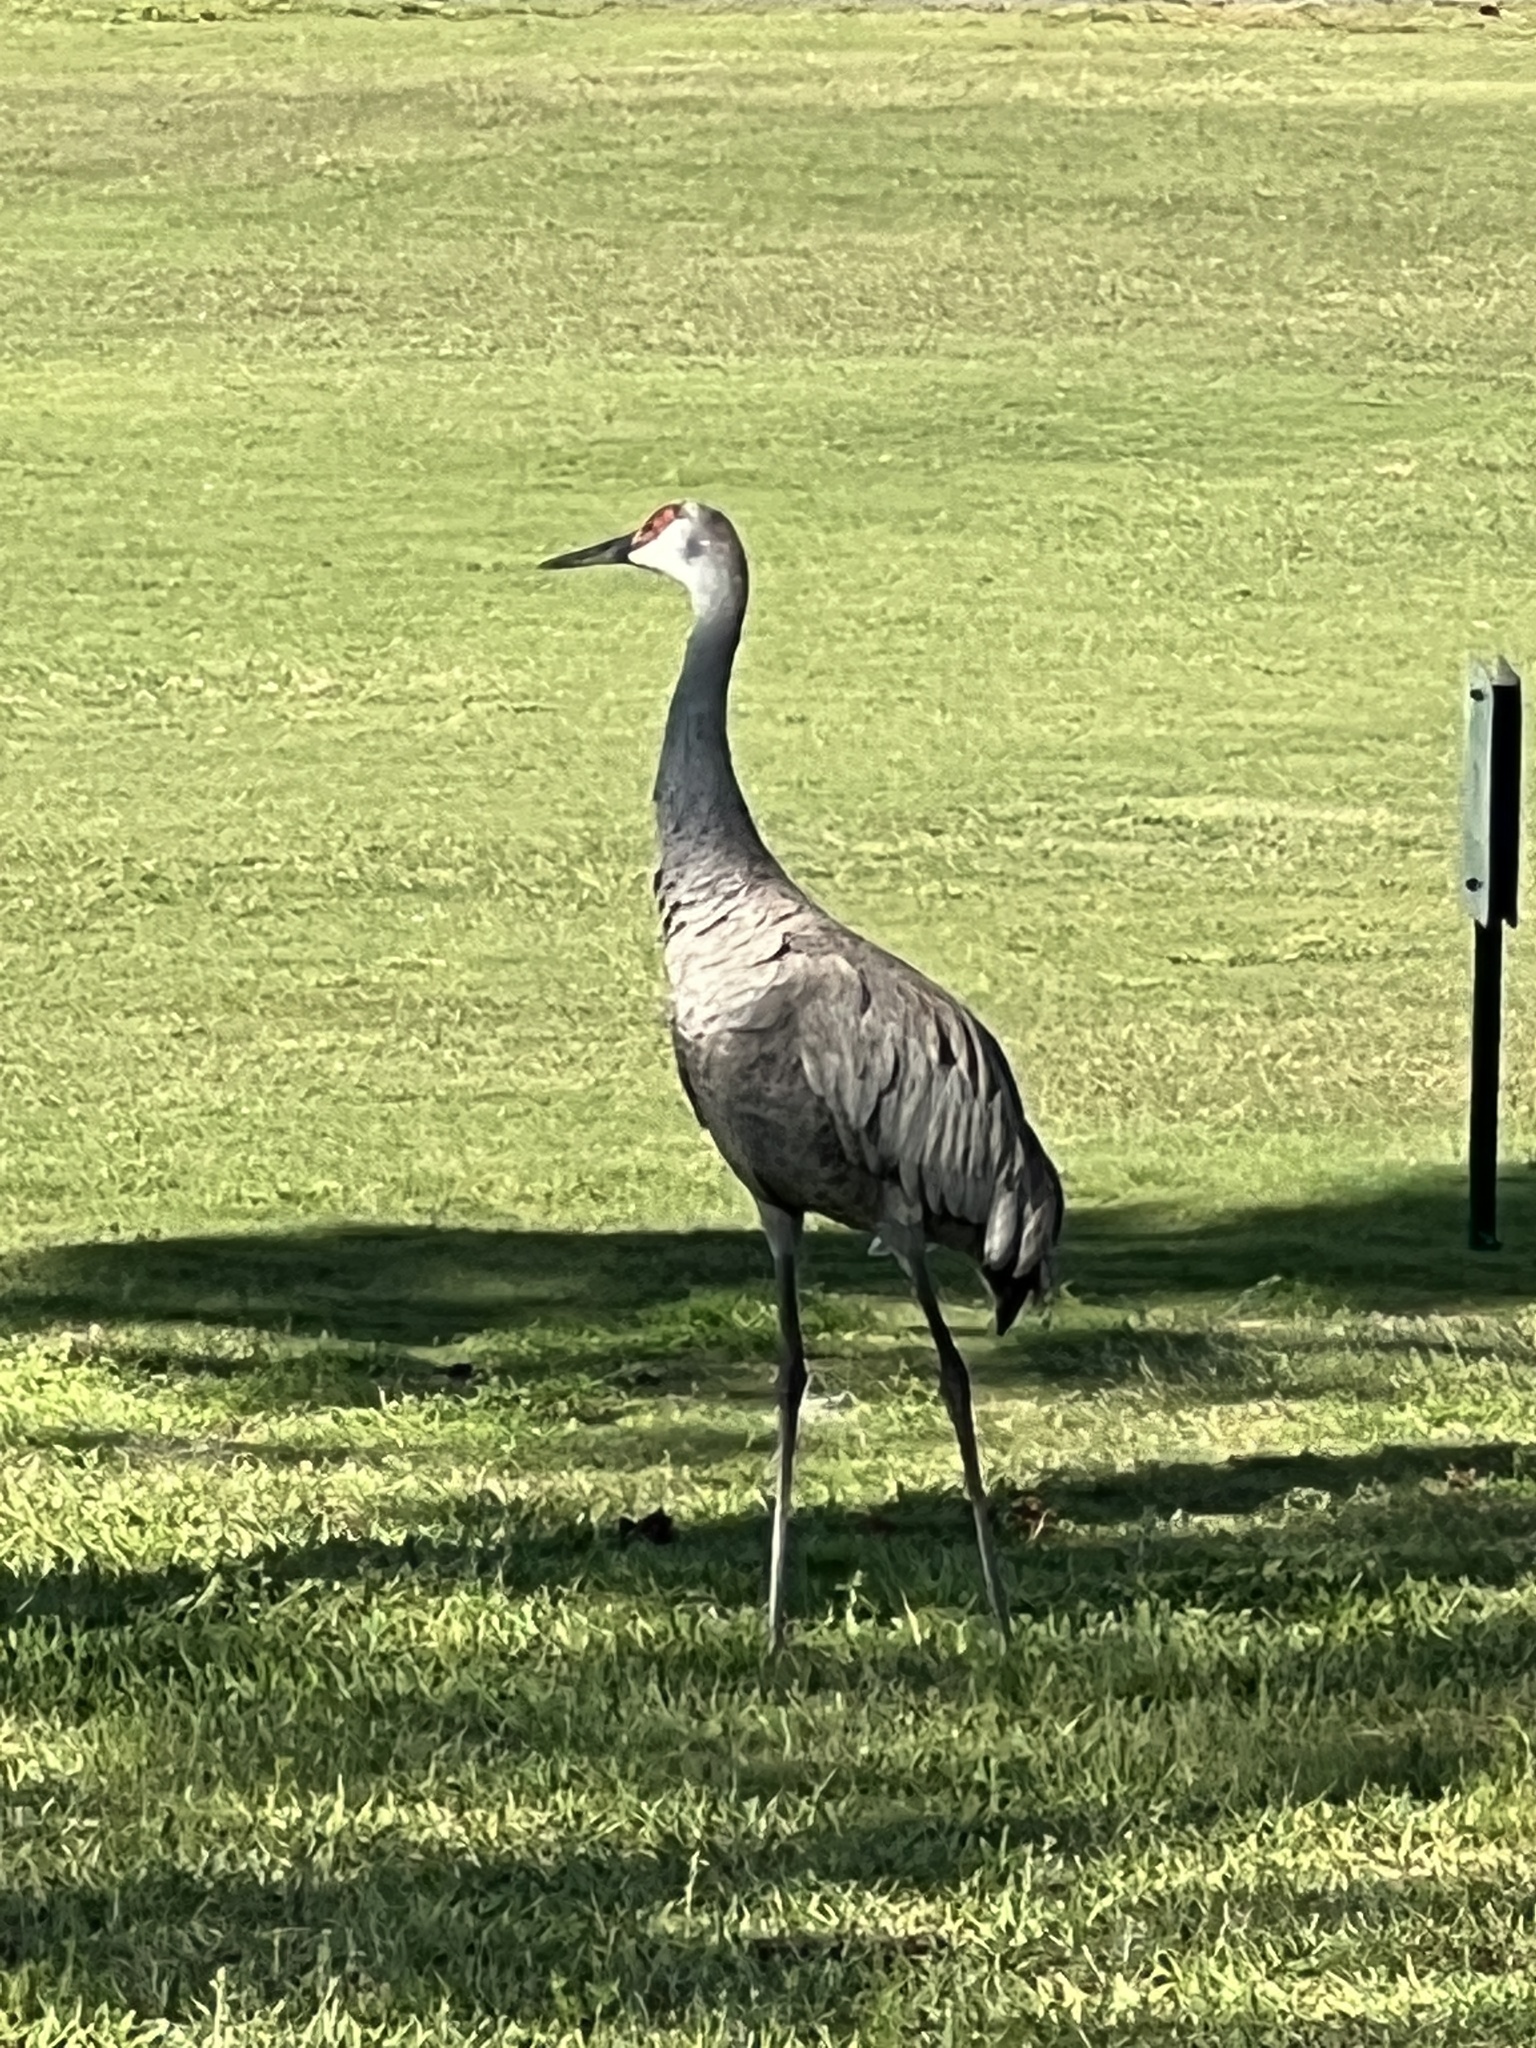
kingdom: Animalia
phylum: Chordata
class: Aves
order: Gruiformes
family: Gruidae
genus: Grus
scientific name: Grus canadensis
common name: Sandhill crane
